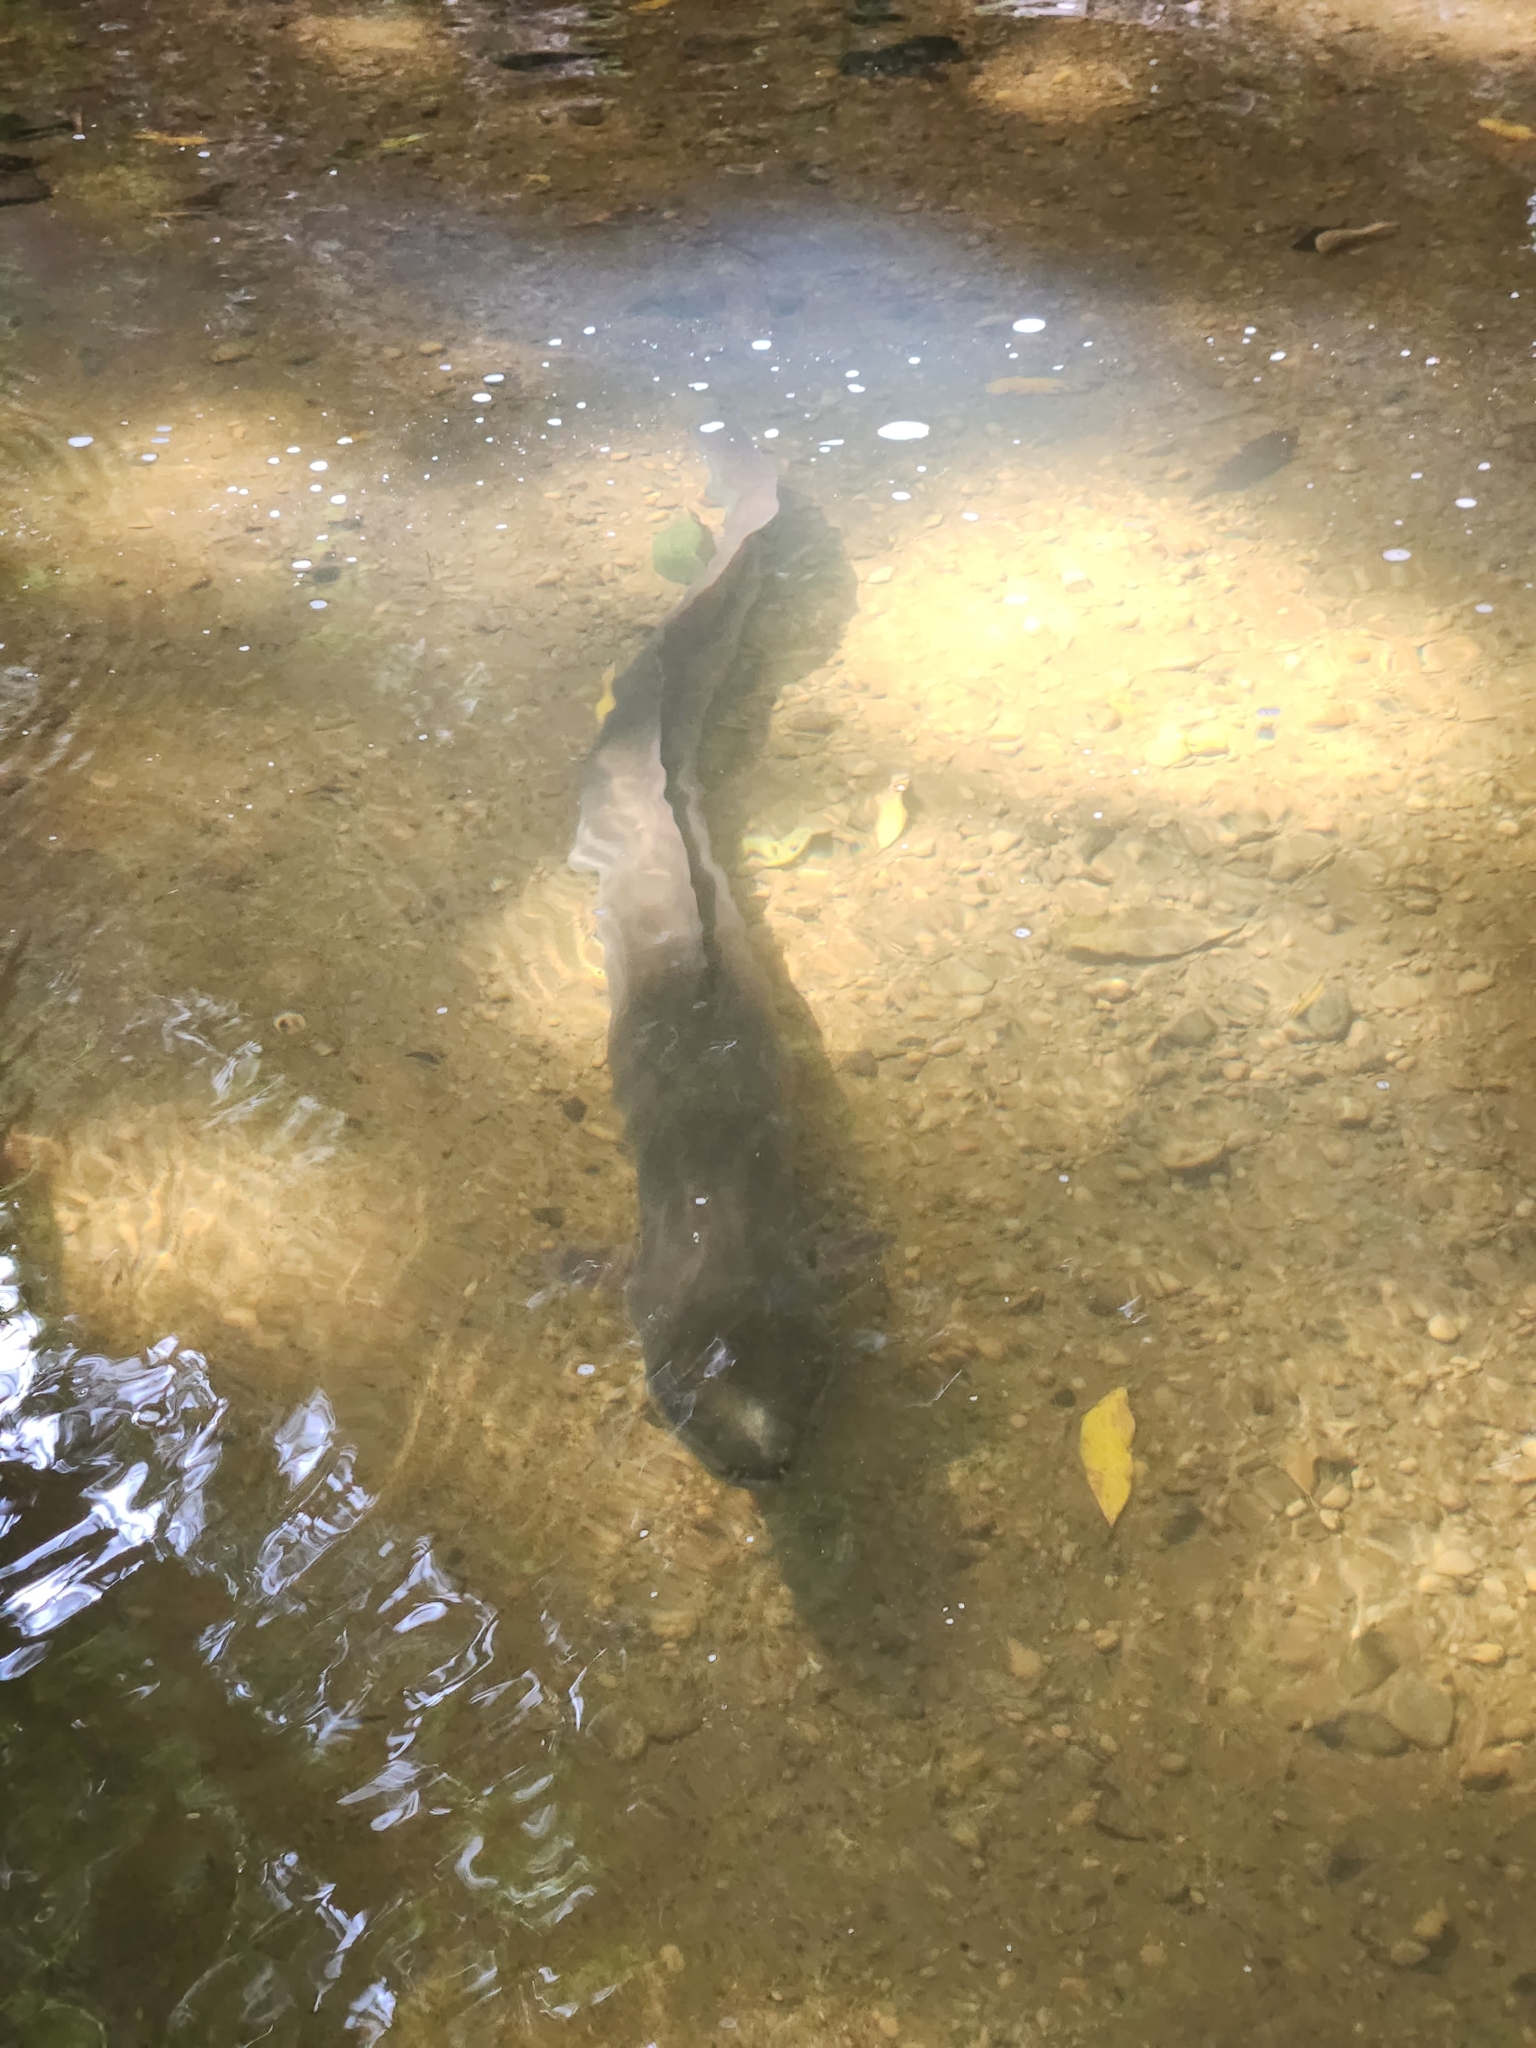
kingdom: Animalia
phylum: Chordata
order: Anguilliformes
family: Anguillidae
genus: Anguilla
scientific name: Anguilla dieffenbachii
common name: New zealand longfin eel
